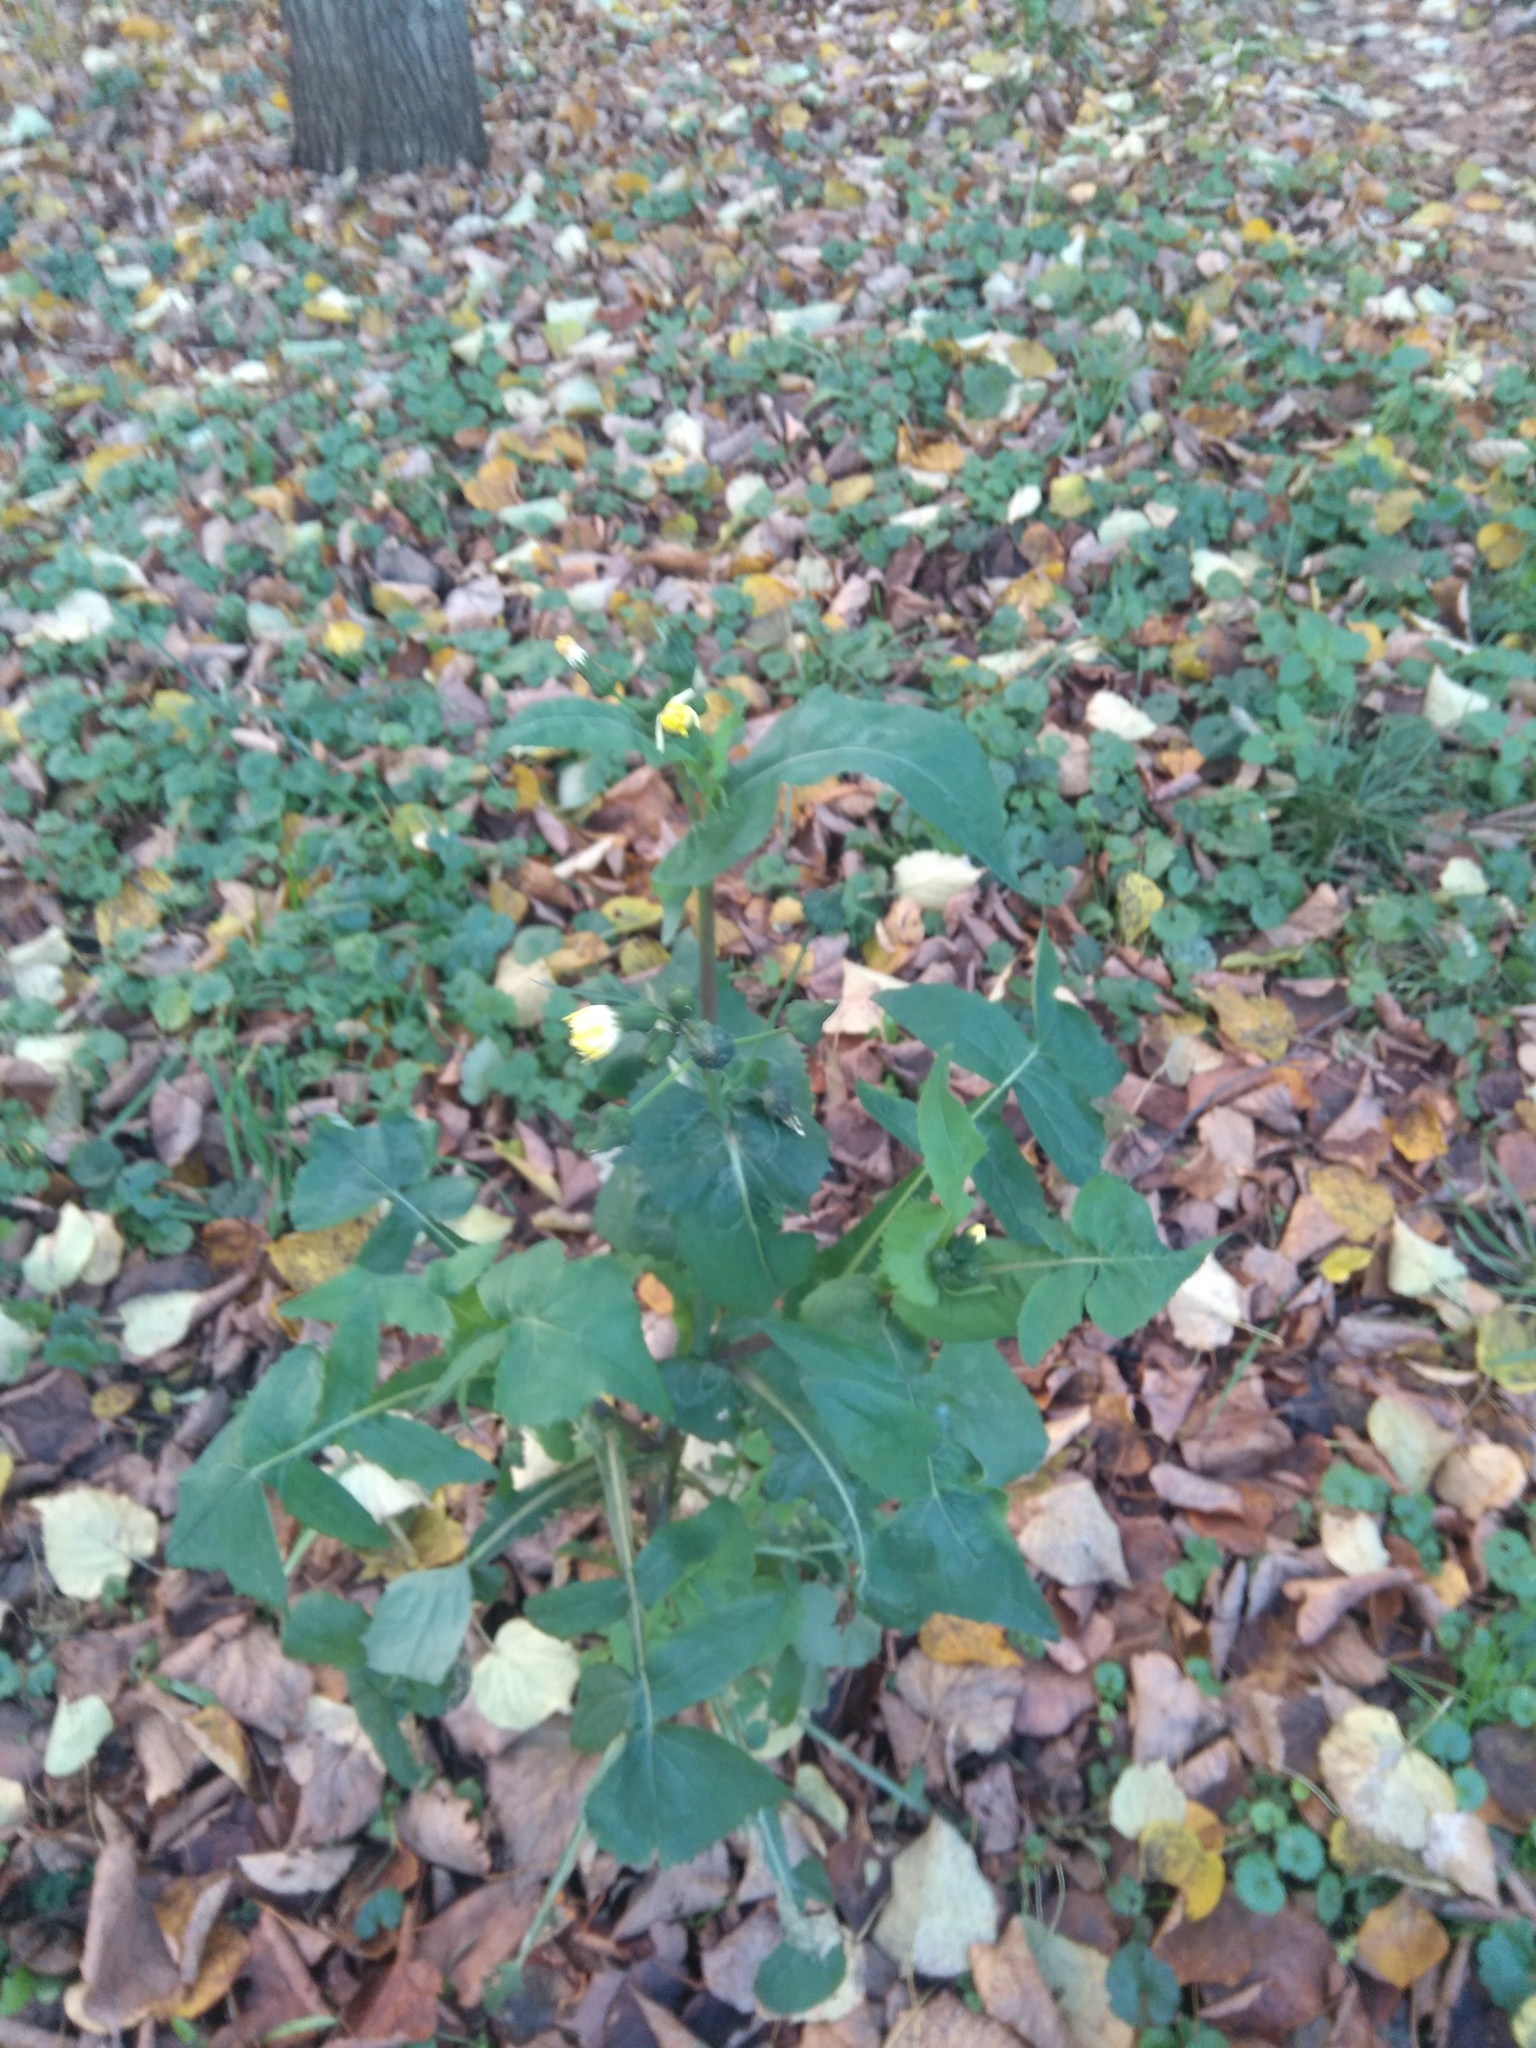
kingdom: Plantae
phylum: Tracheophyta
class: Magnoliopsida
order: Asterales
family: Asteraceae
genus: Sonchus
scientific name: Sonchus oleraceus
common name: Common sowthistle
